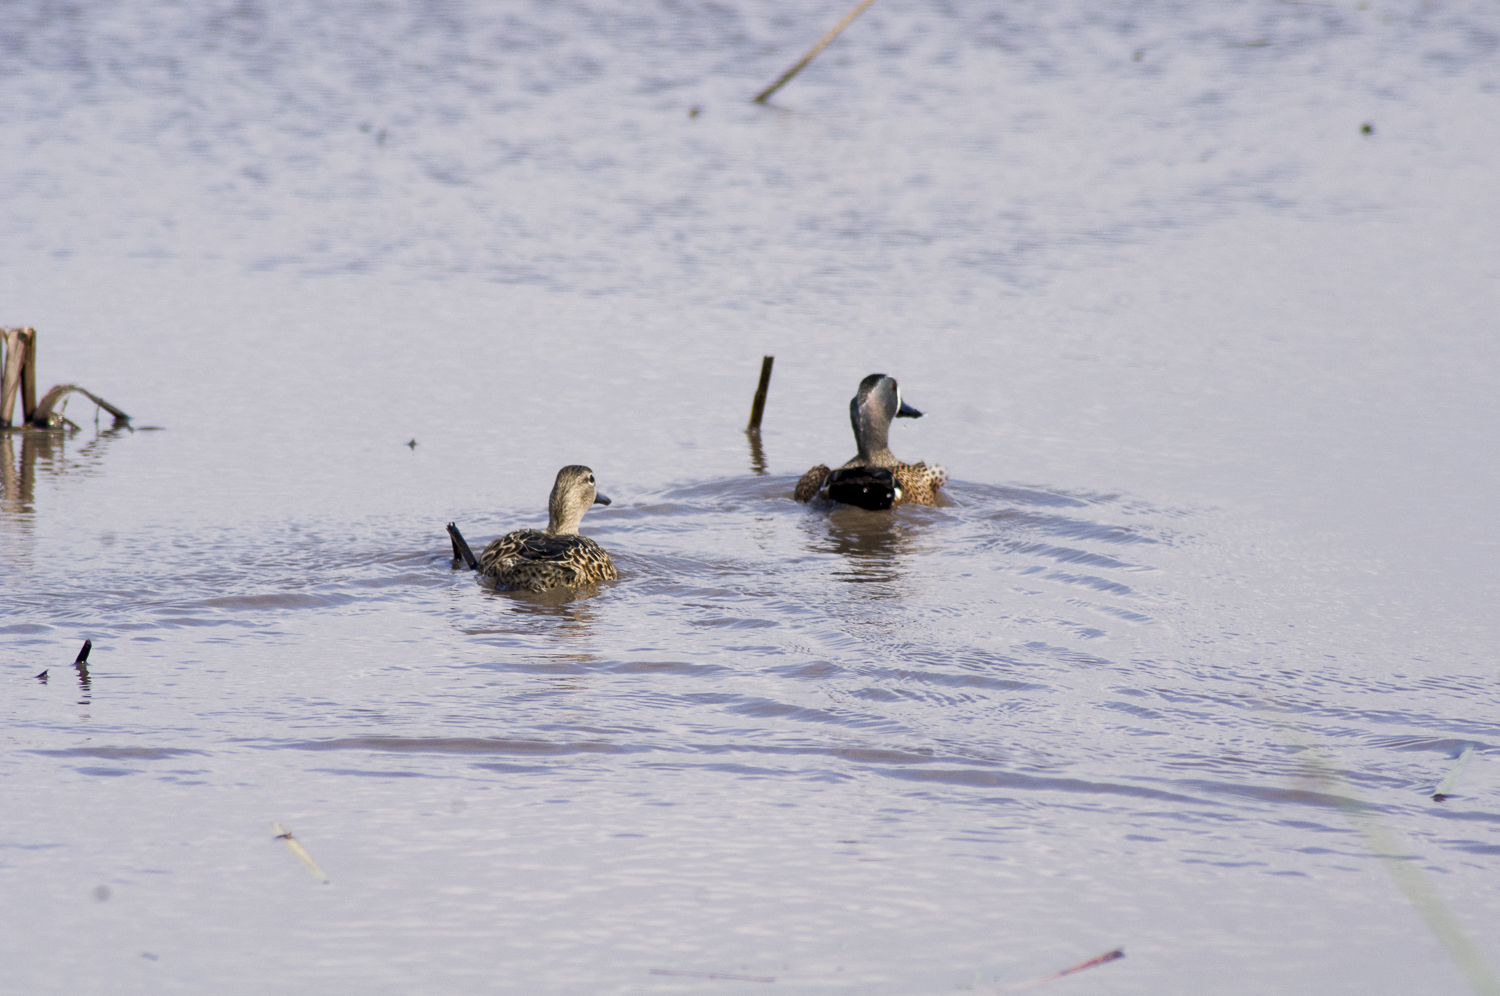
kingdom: Animalia
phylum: Chordata
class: Aves
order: Anseriformes
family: Anatidae
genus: Spatula
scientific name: Spatula discors
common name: Blue-winged teal
